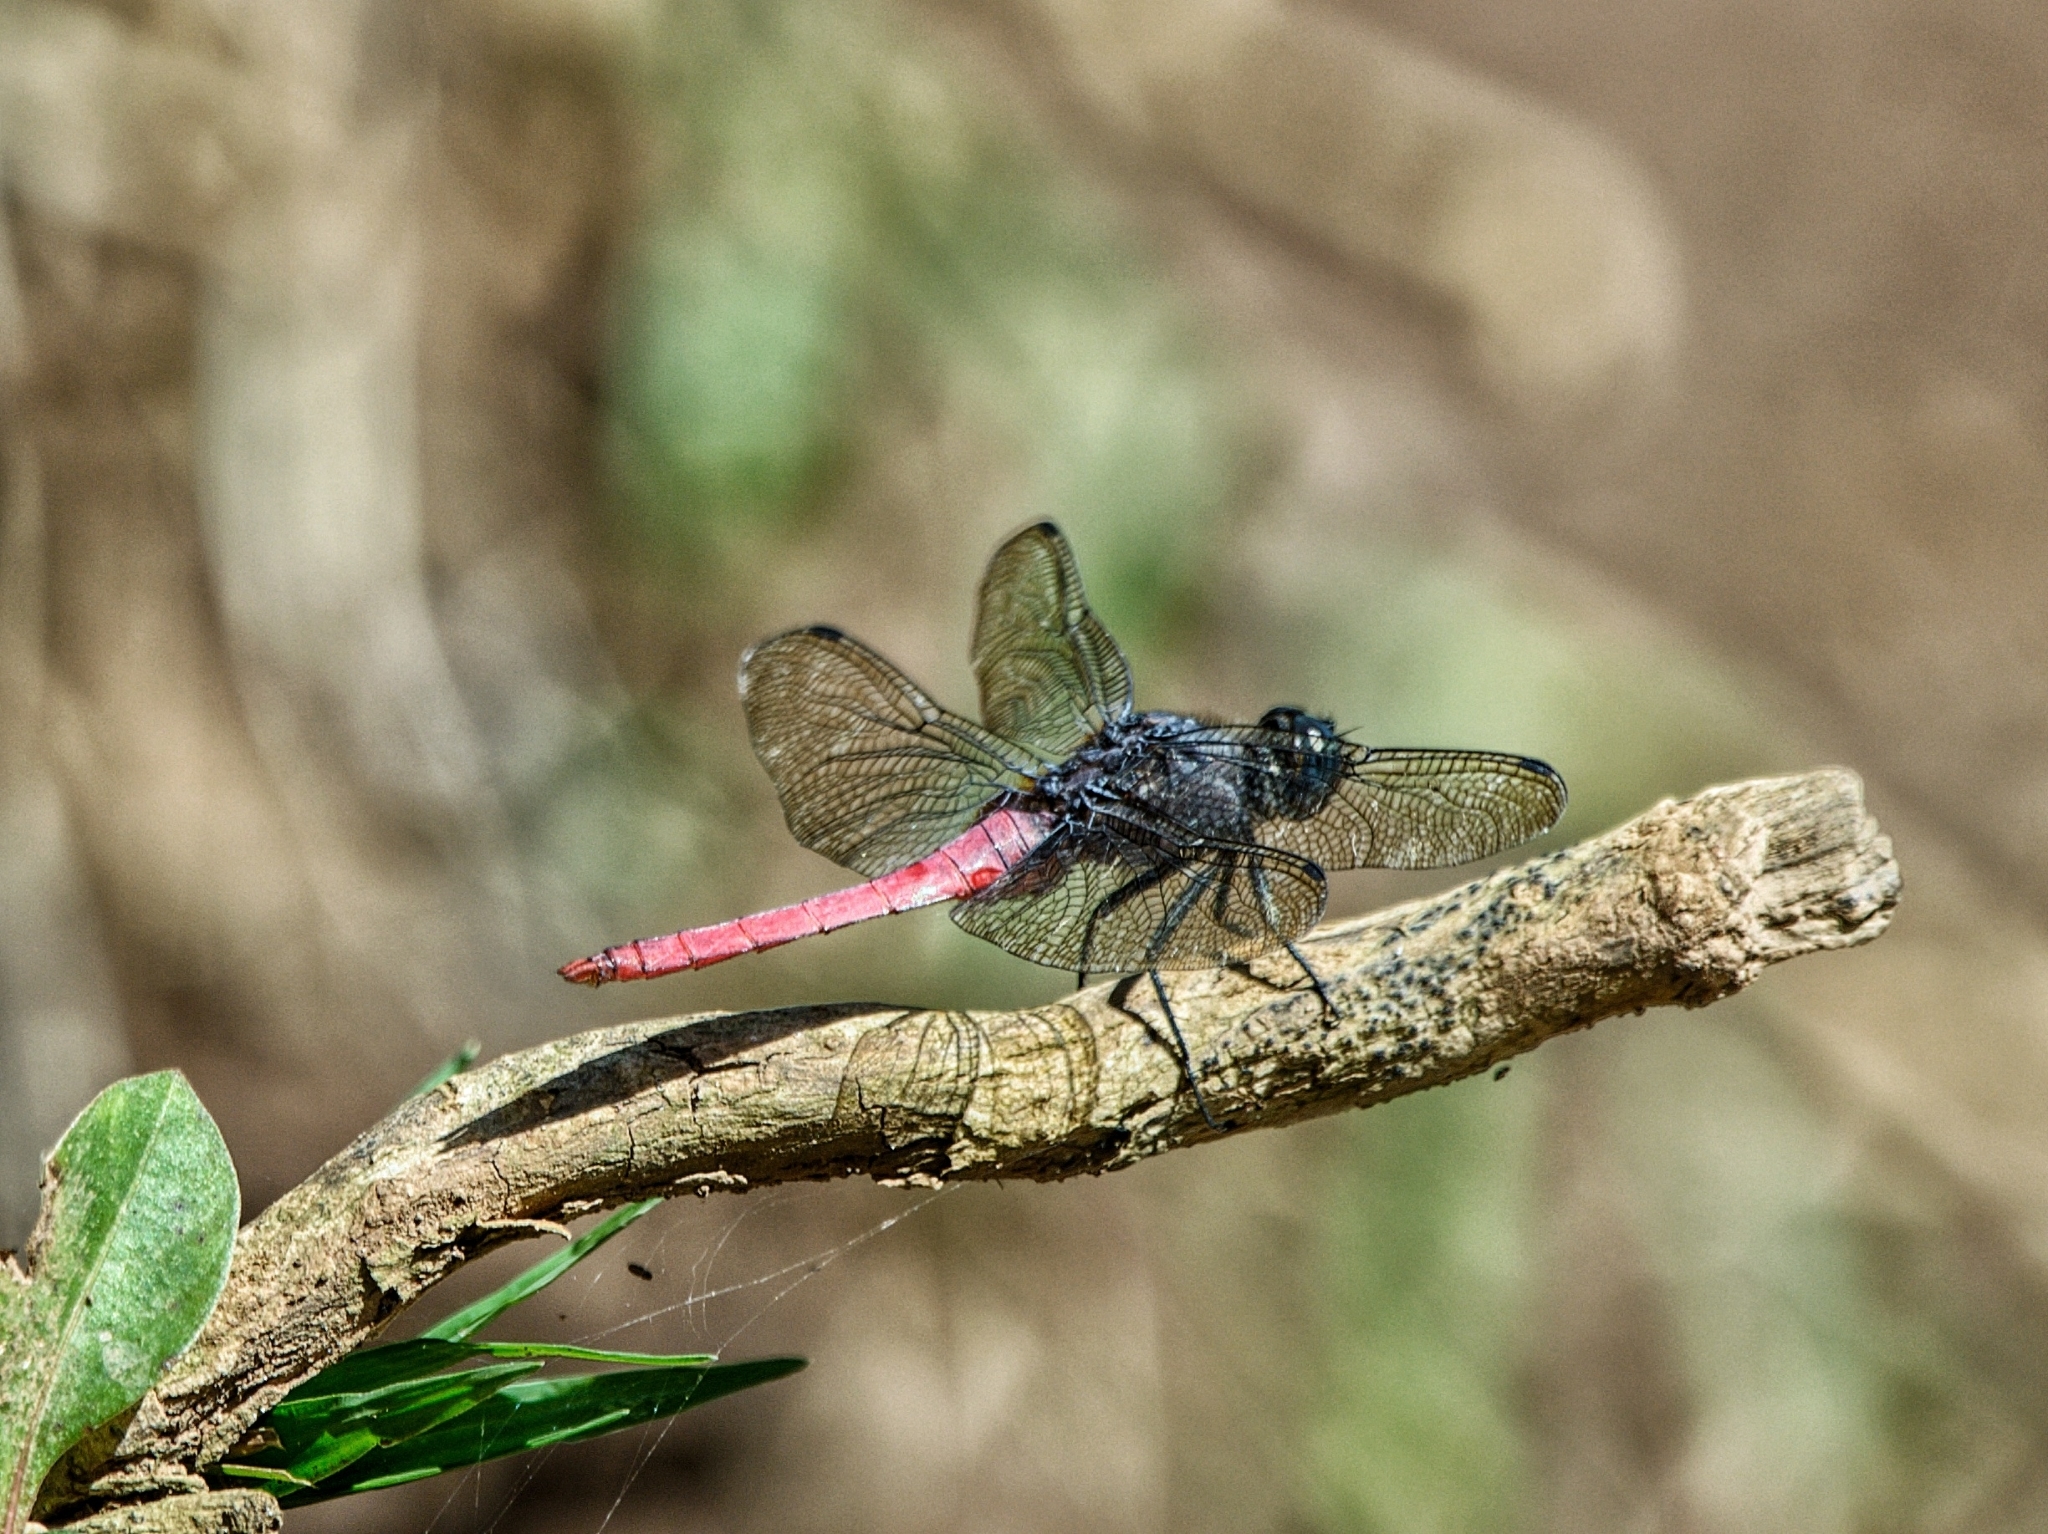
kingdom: Animalia
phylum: Arthropoda
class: Insecta
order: Odonata
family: Libellulidae
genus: Orthetrum
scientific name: Orthetrum pruinosum
